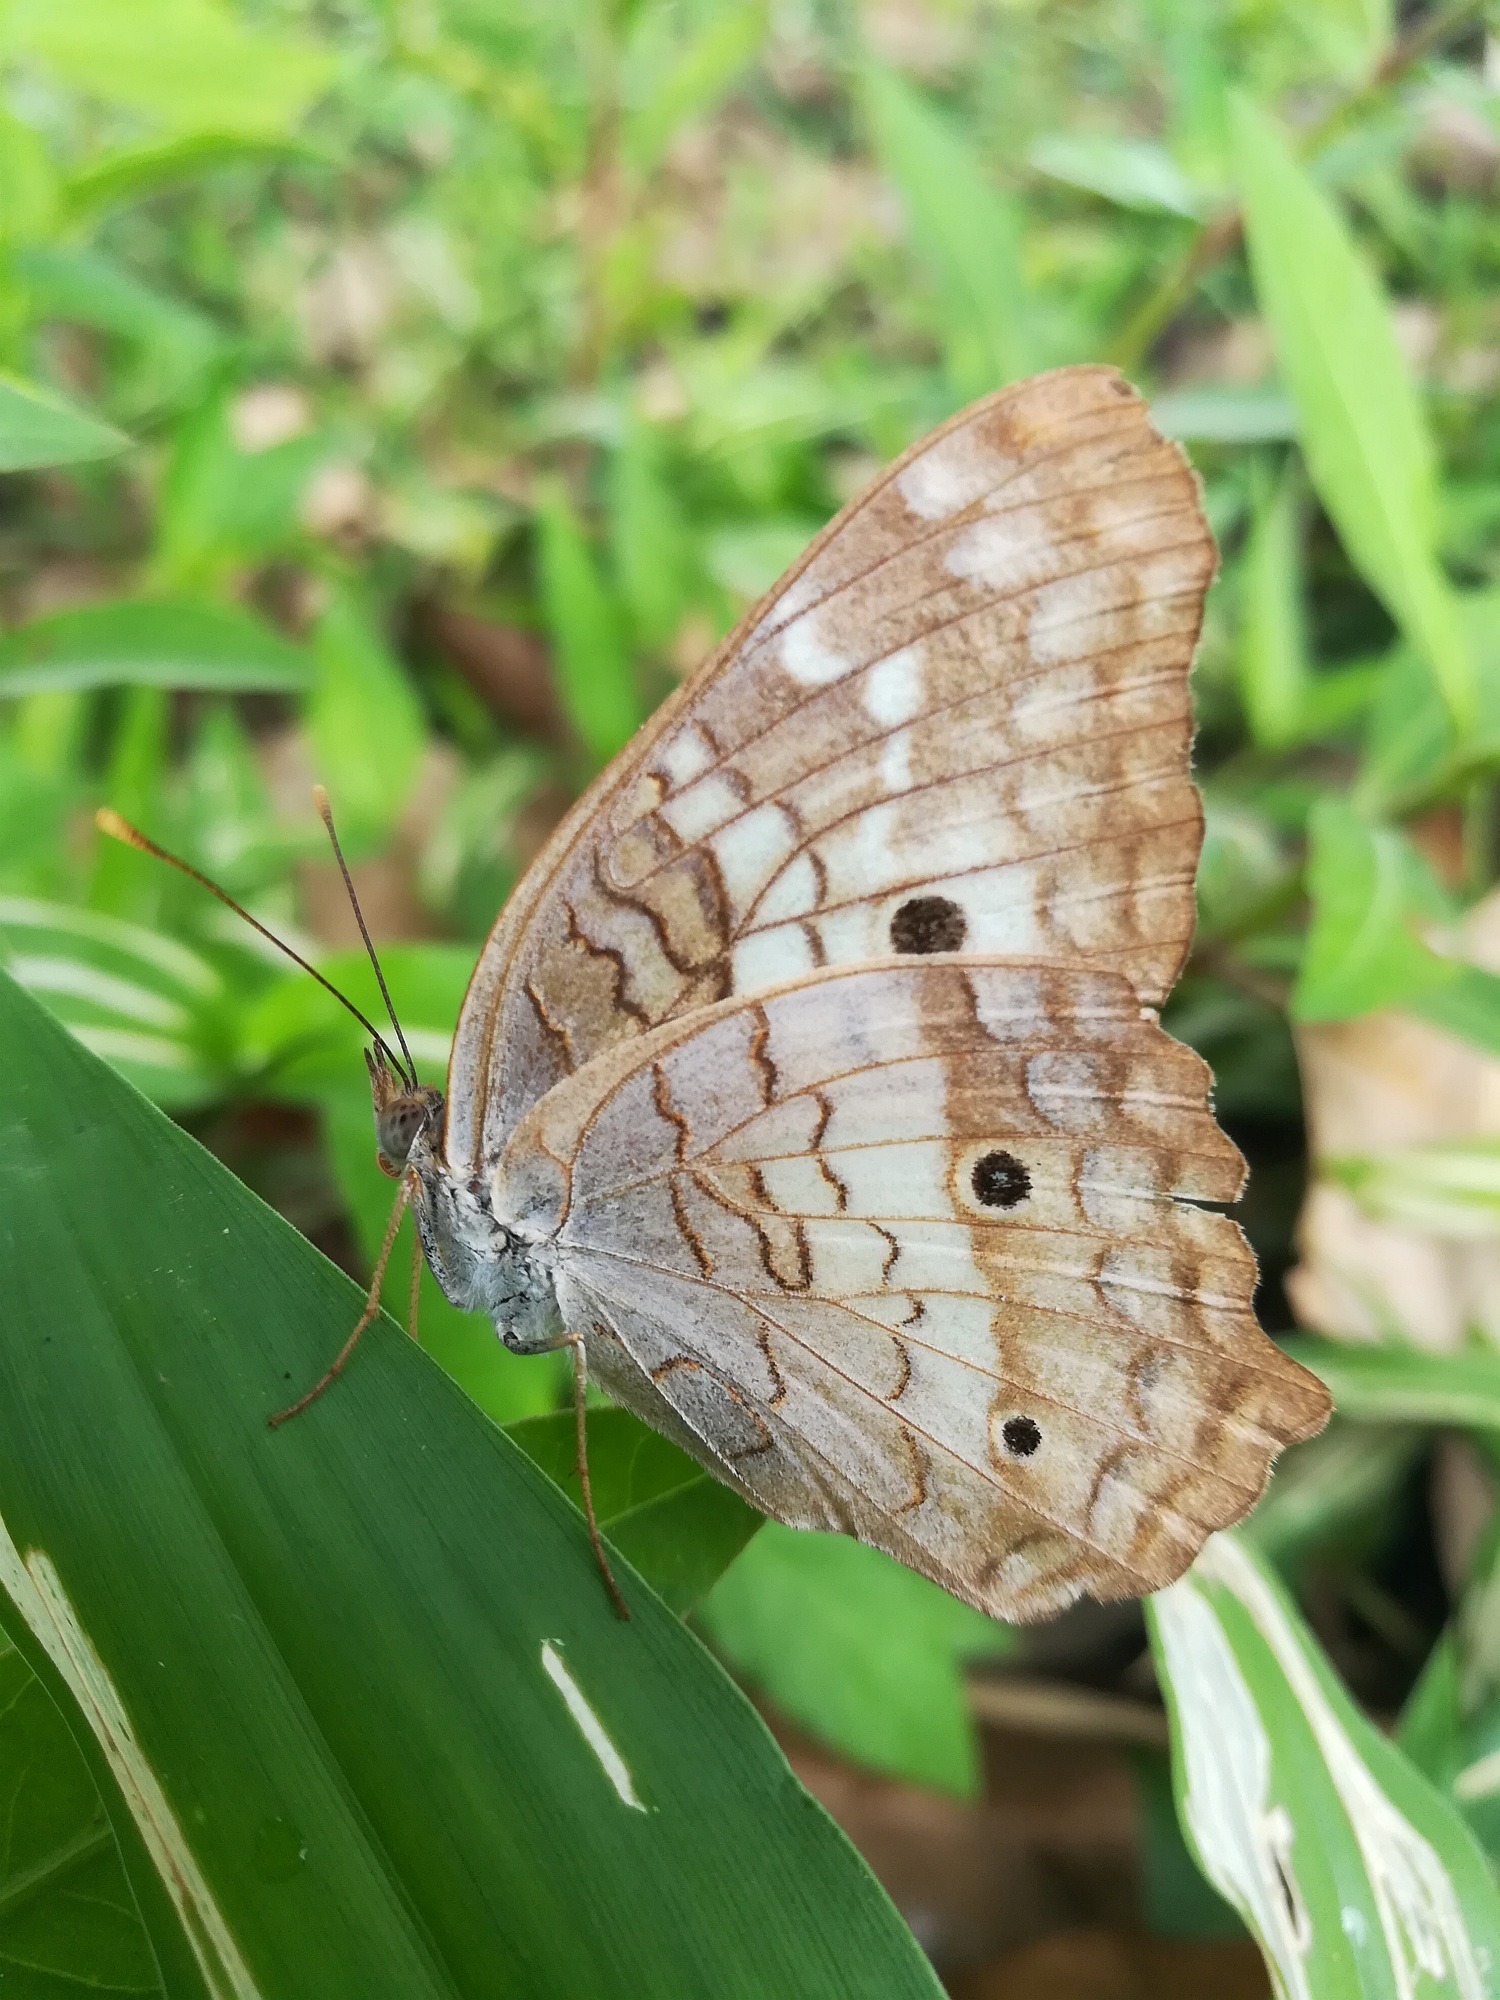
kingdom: Animalia
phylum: Arthropoda
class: Insecta
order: Lepidoptera
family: Nymphalidae
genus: Anartia
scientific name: Anartia jatrophae
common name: White peacock
